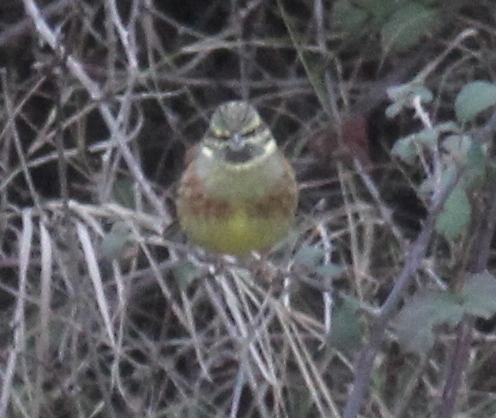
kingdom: Animalia
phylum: Chordata
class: Aves
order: Passeriformes
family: Emberizidae
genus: Emberiza
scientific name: Emberiza cirlus
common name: Cirl bunting
